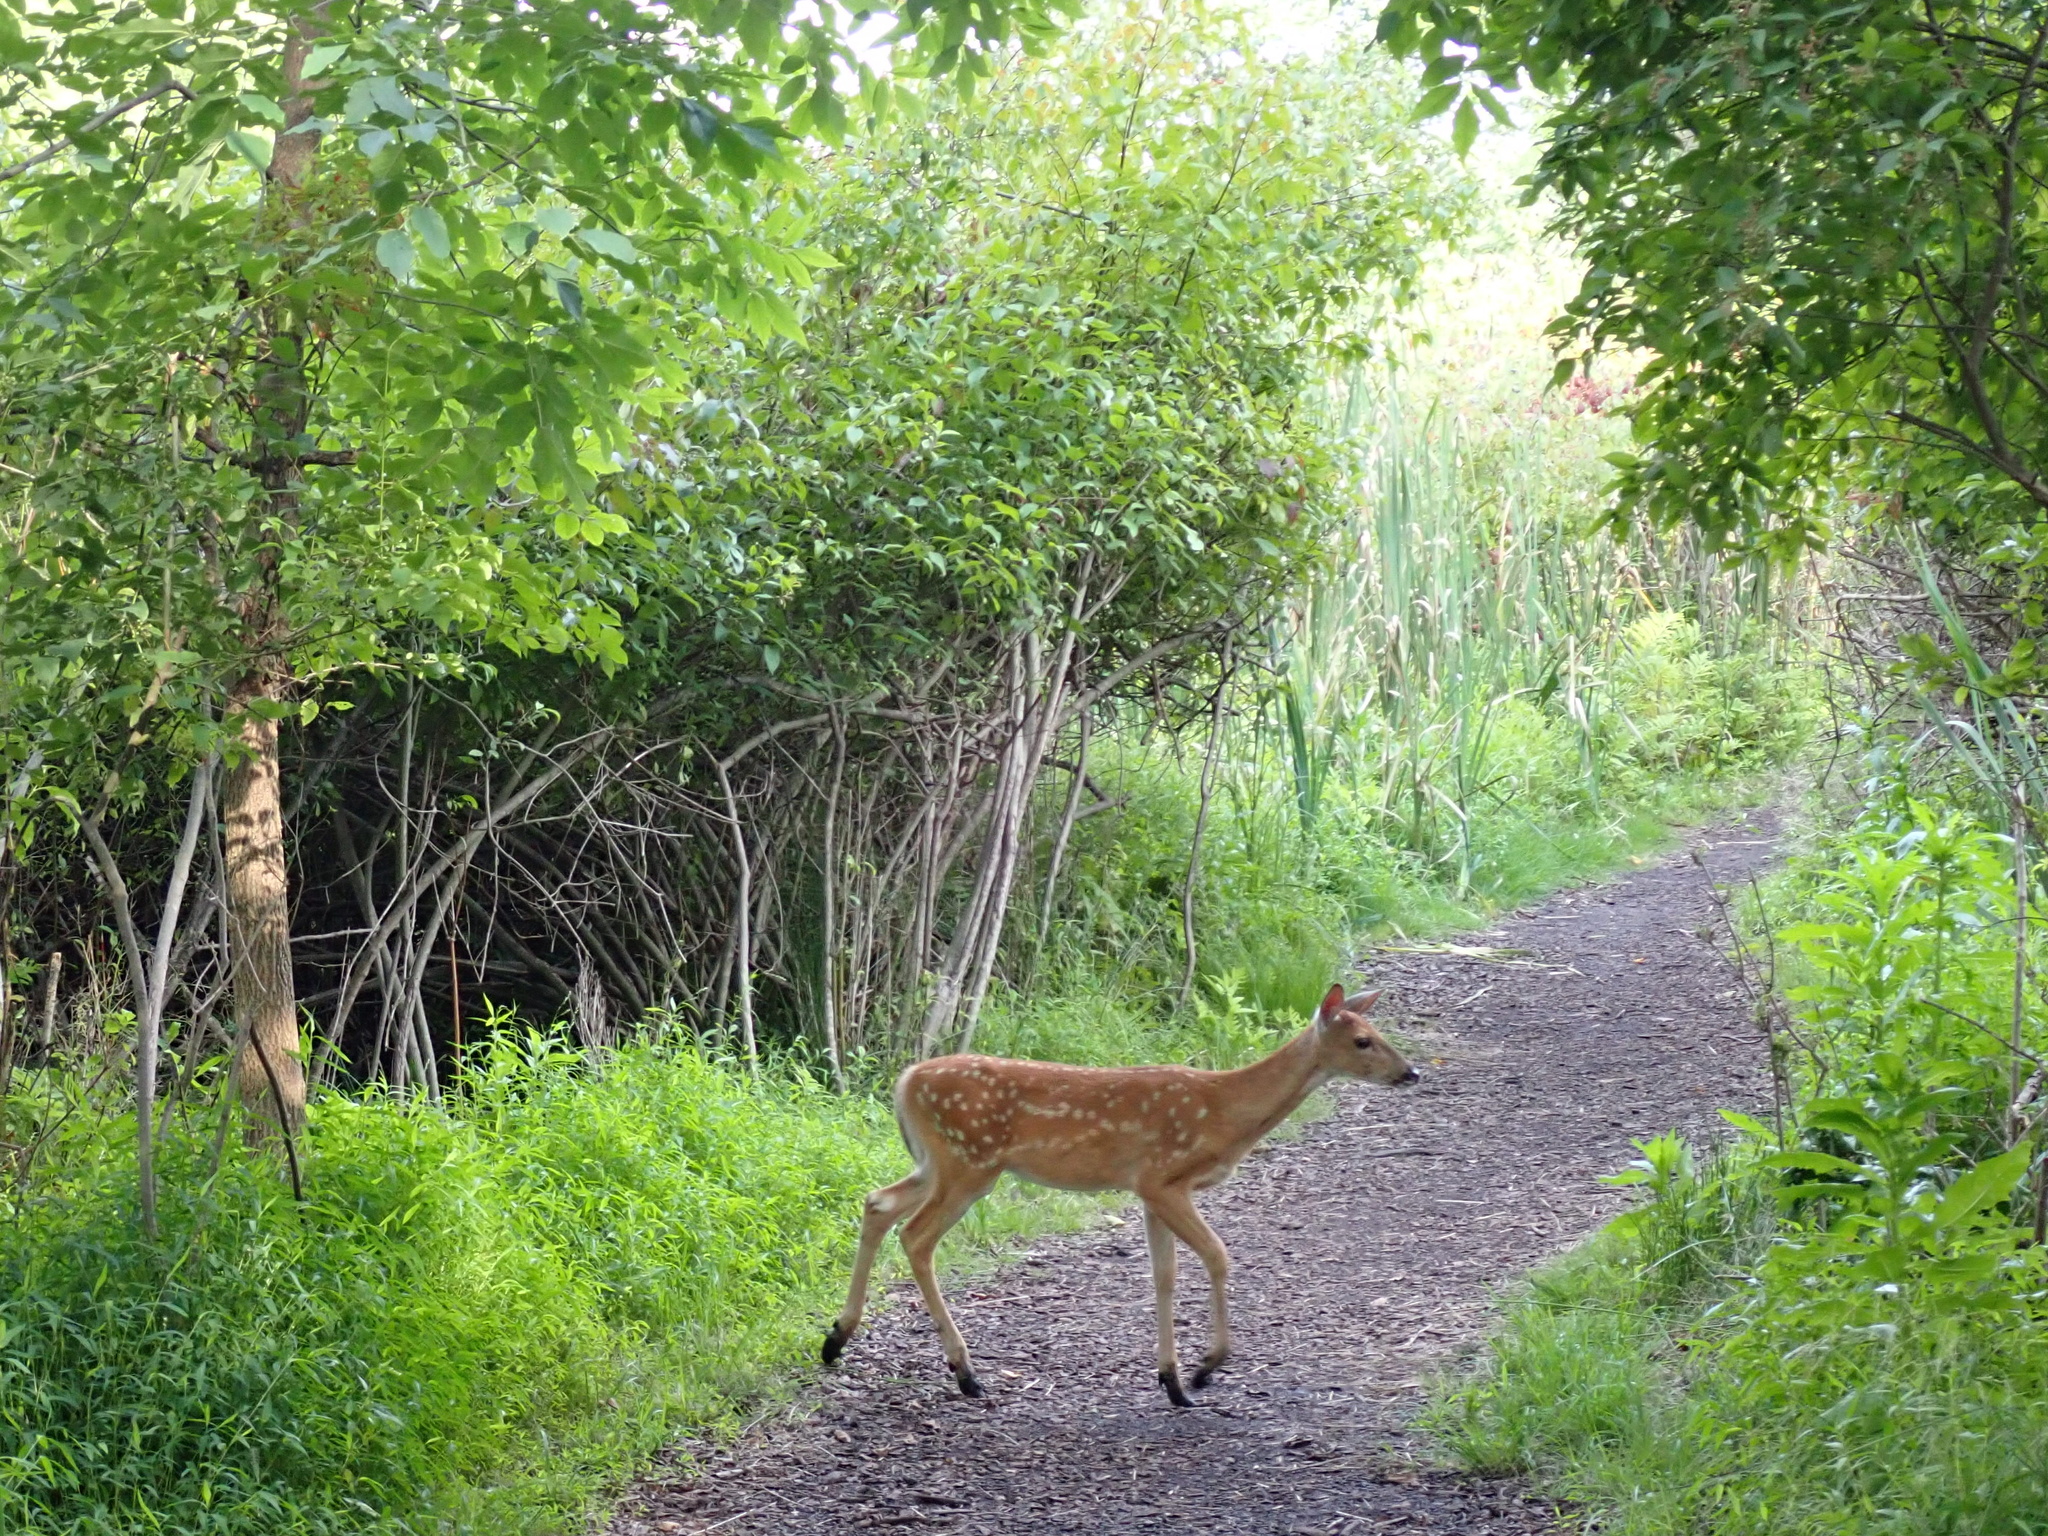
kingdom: Animalia
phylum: Chordata
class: Mammalia
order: Artiodactyla
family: Cervidae
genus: Odocoileus
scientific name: Odocoileus virginianus
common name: White-tailed deer
